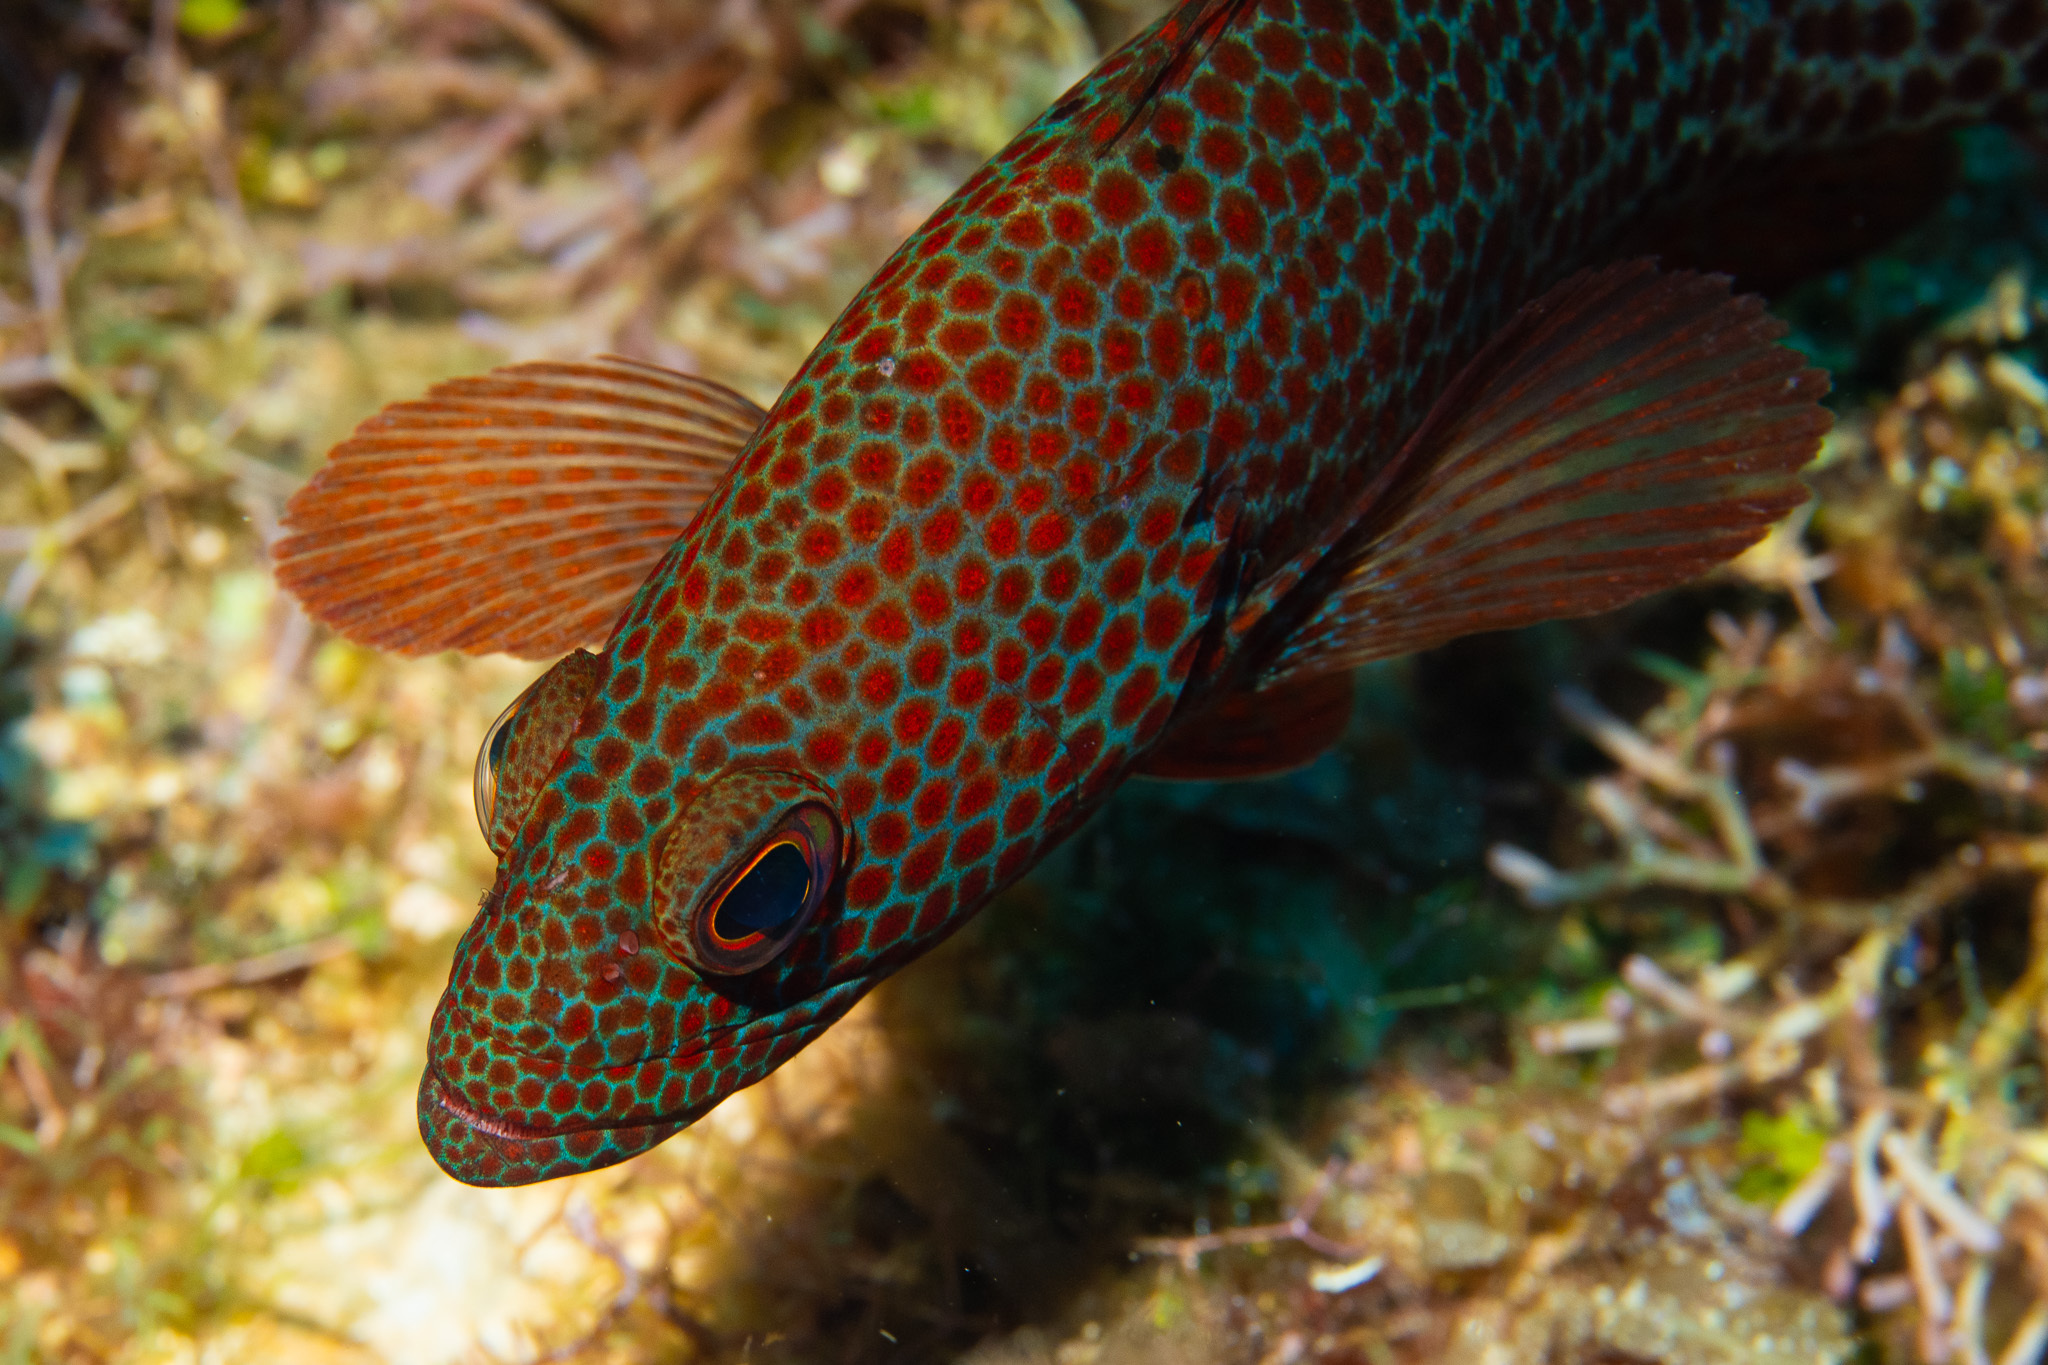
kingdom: Animalia
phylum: Chordata
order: Perciformes
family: Serranidae
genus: Cephalopholis
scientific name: Cephalopholis cruentata
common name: Graysby
